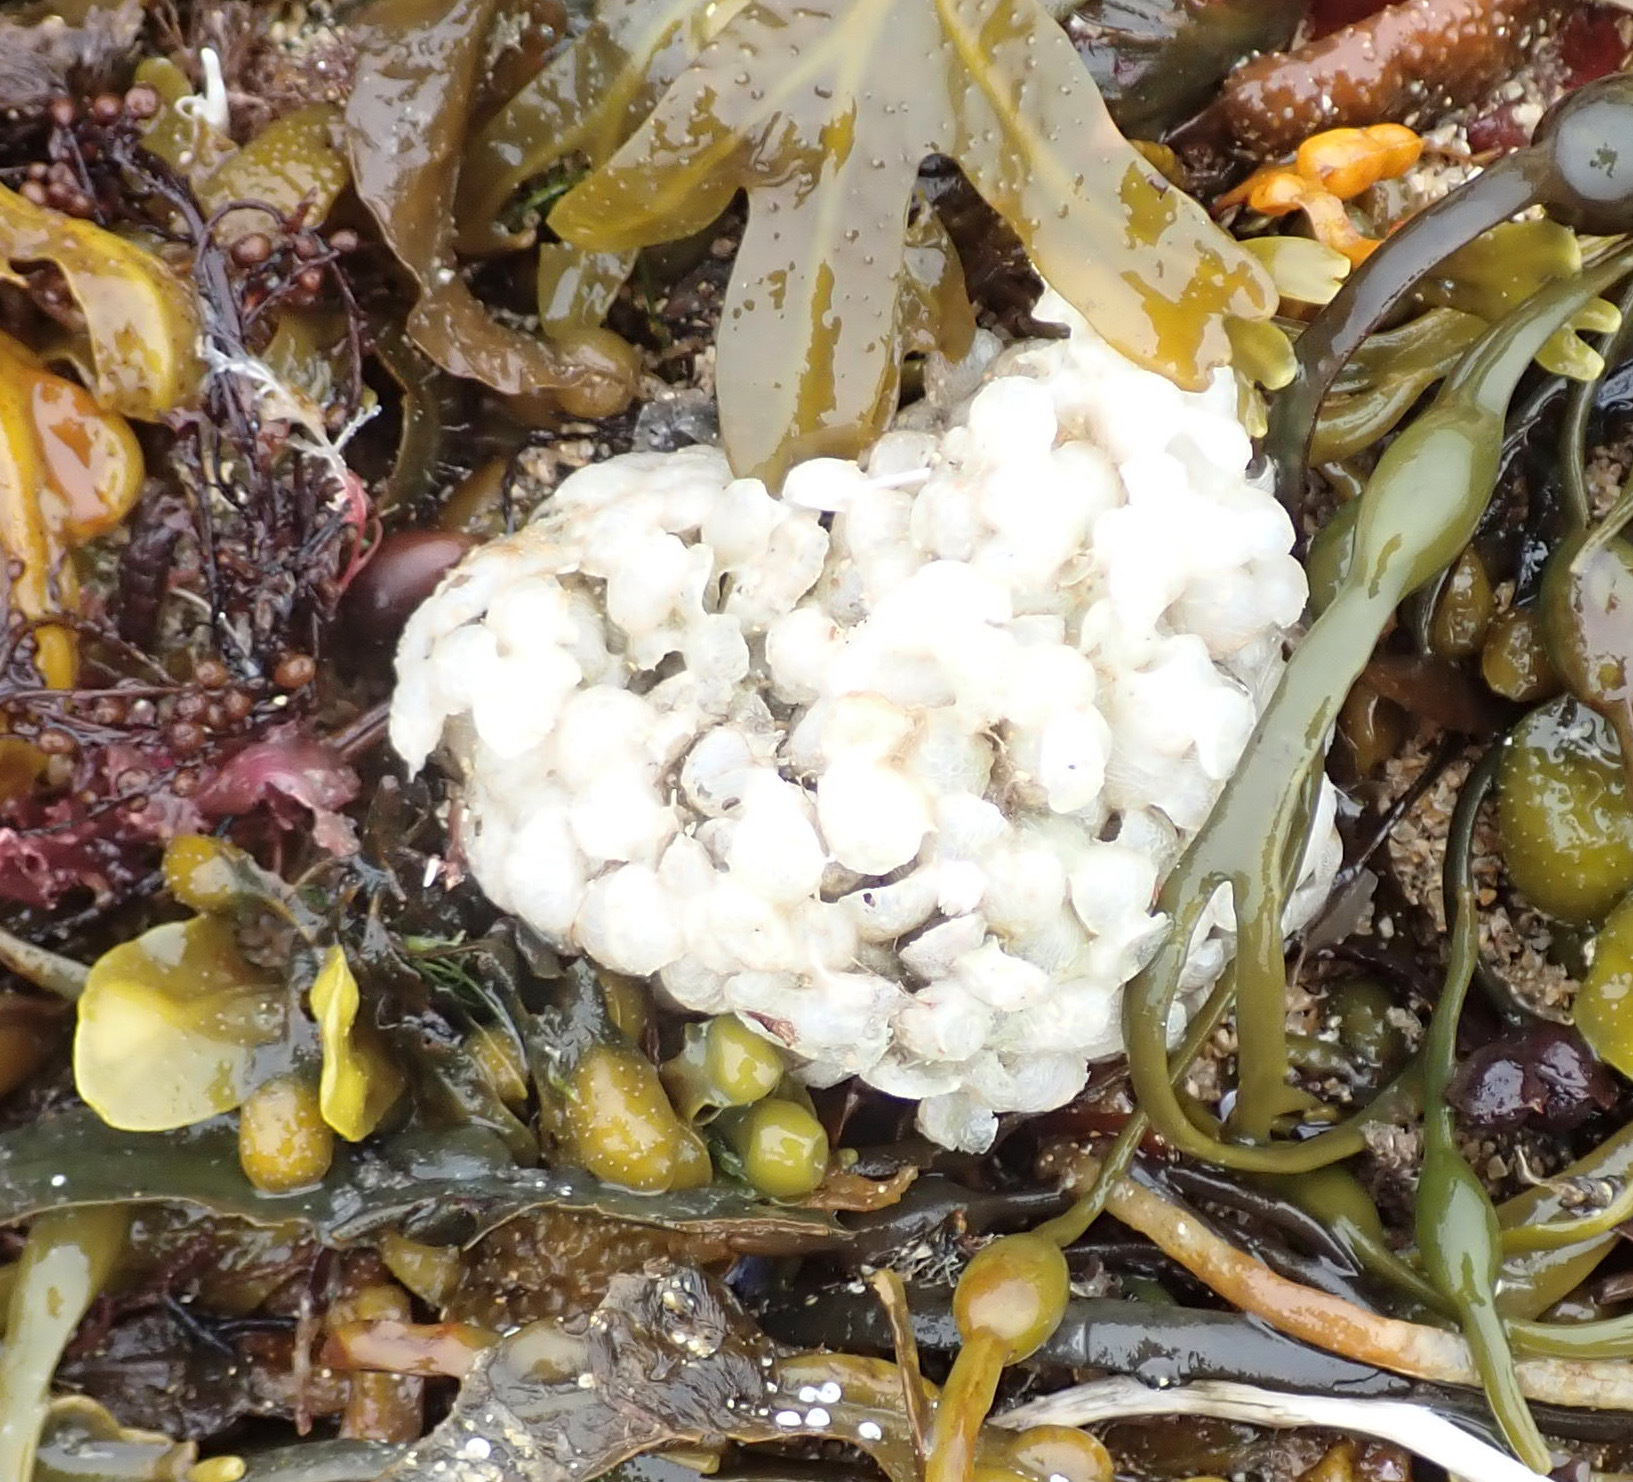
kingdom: Animalia
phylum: Mollusca
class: Gastropoda
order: Neogastropoda
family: Buccinidae
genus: Buccinum
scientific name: Buccinum undatum
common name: Common whelk
